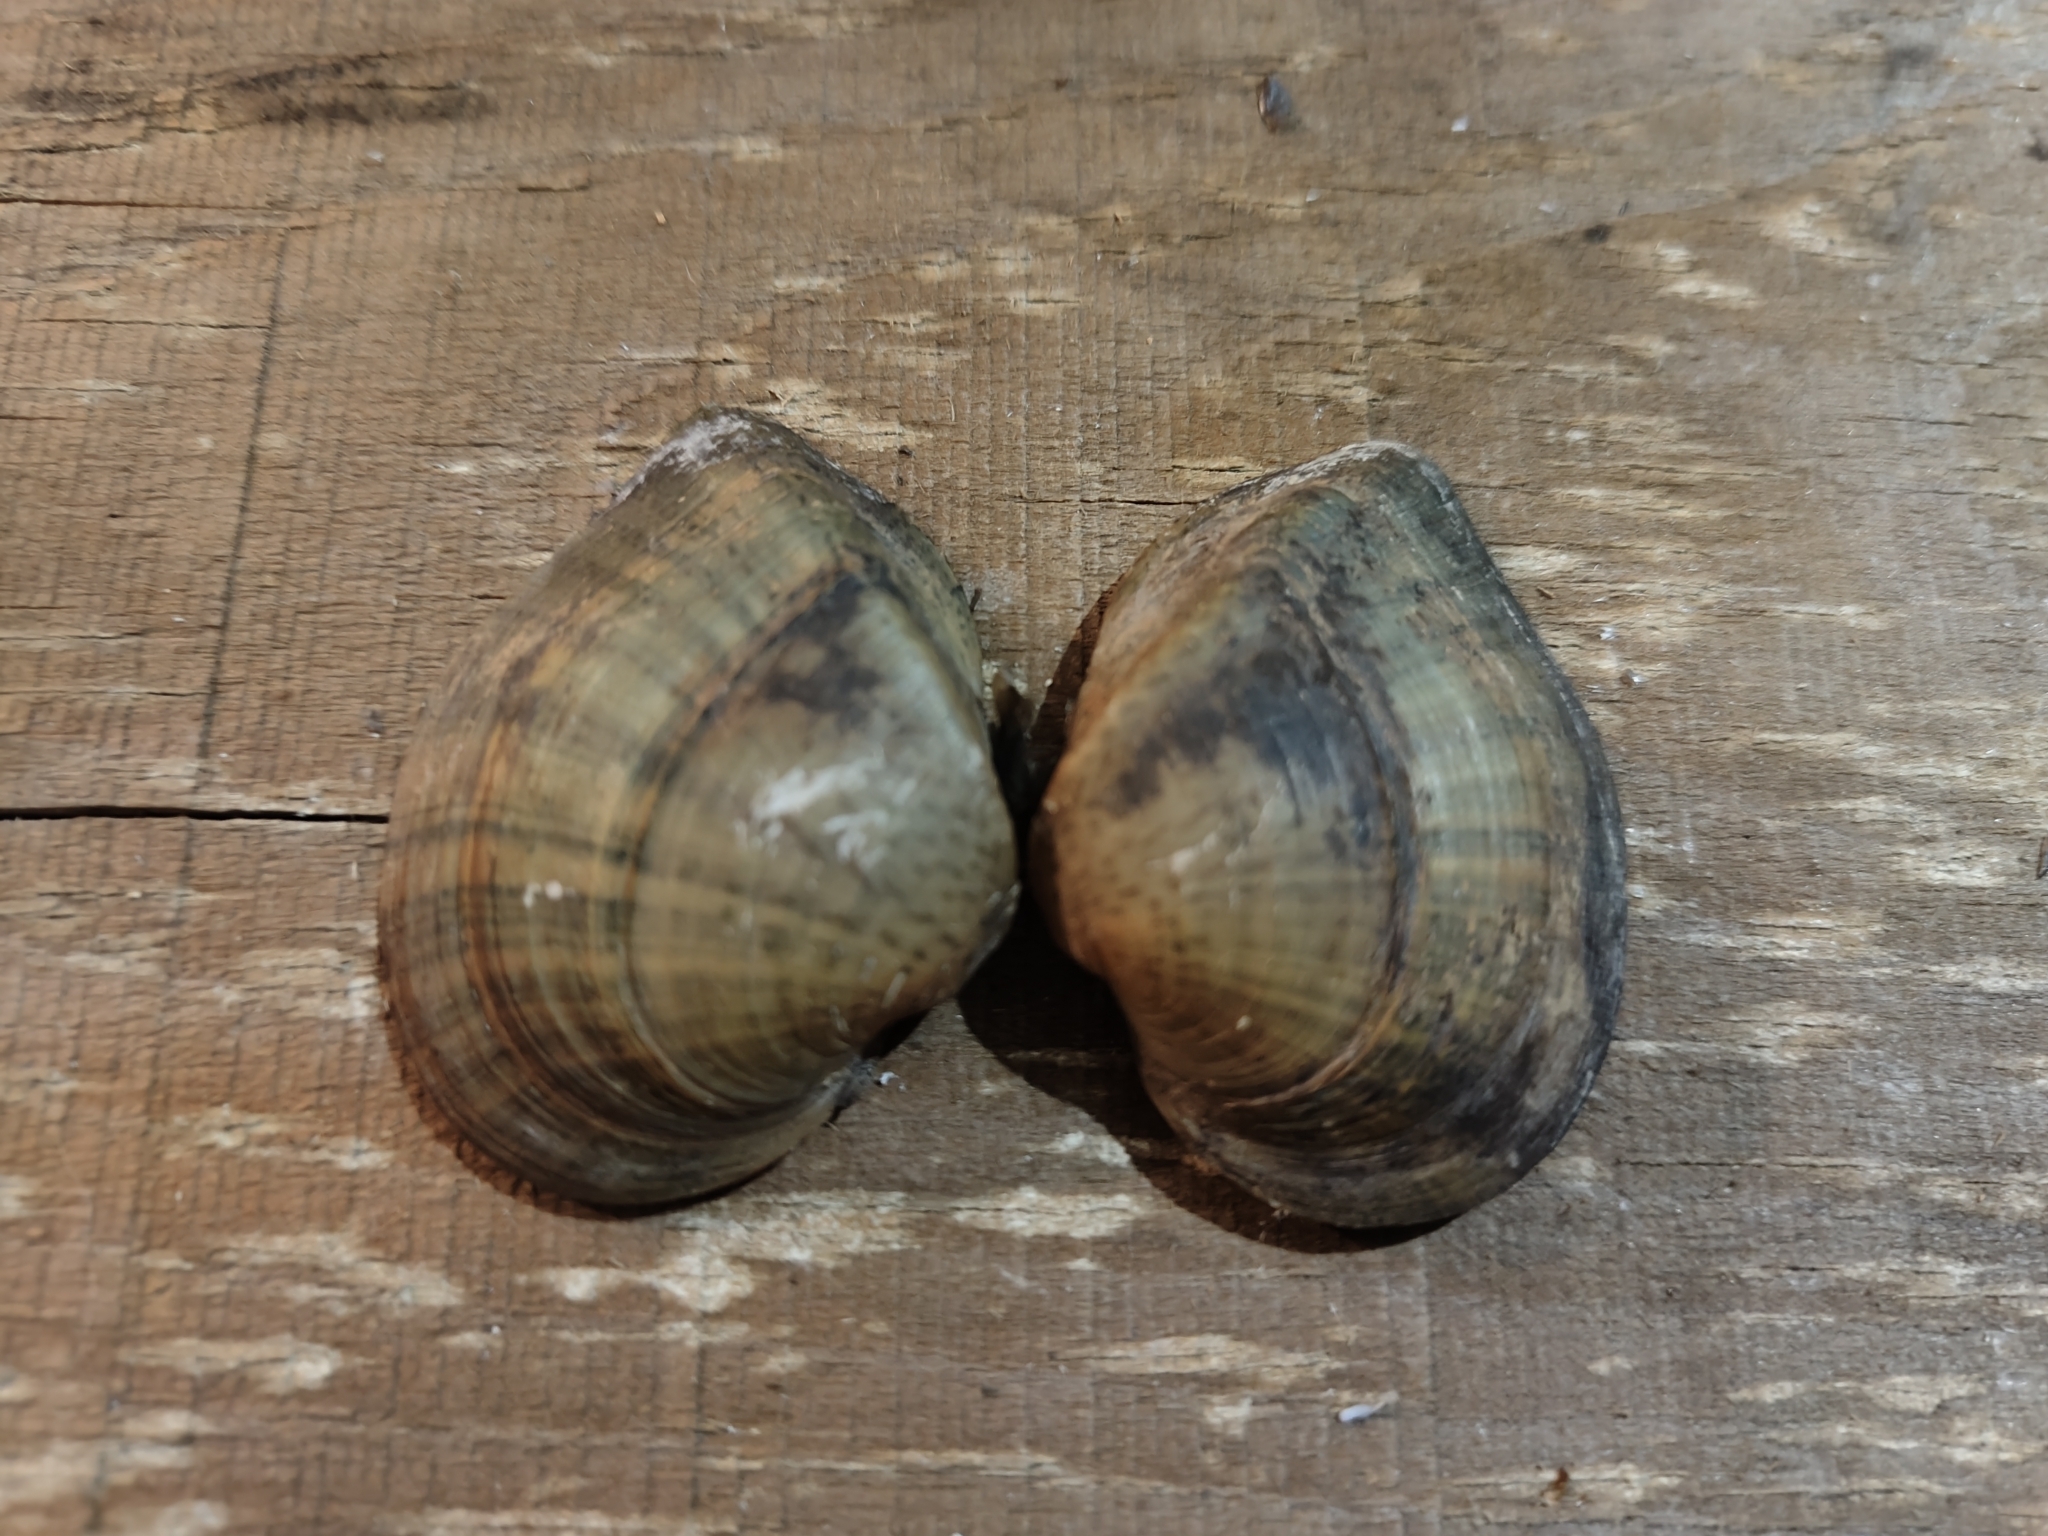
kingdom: Animalia
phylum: Mollusca
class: Bivalvia
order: Unionida
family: Unionidae
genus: Truncilla
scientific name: Truncilla truncata
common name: Deertoe
